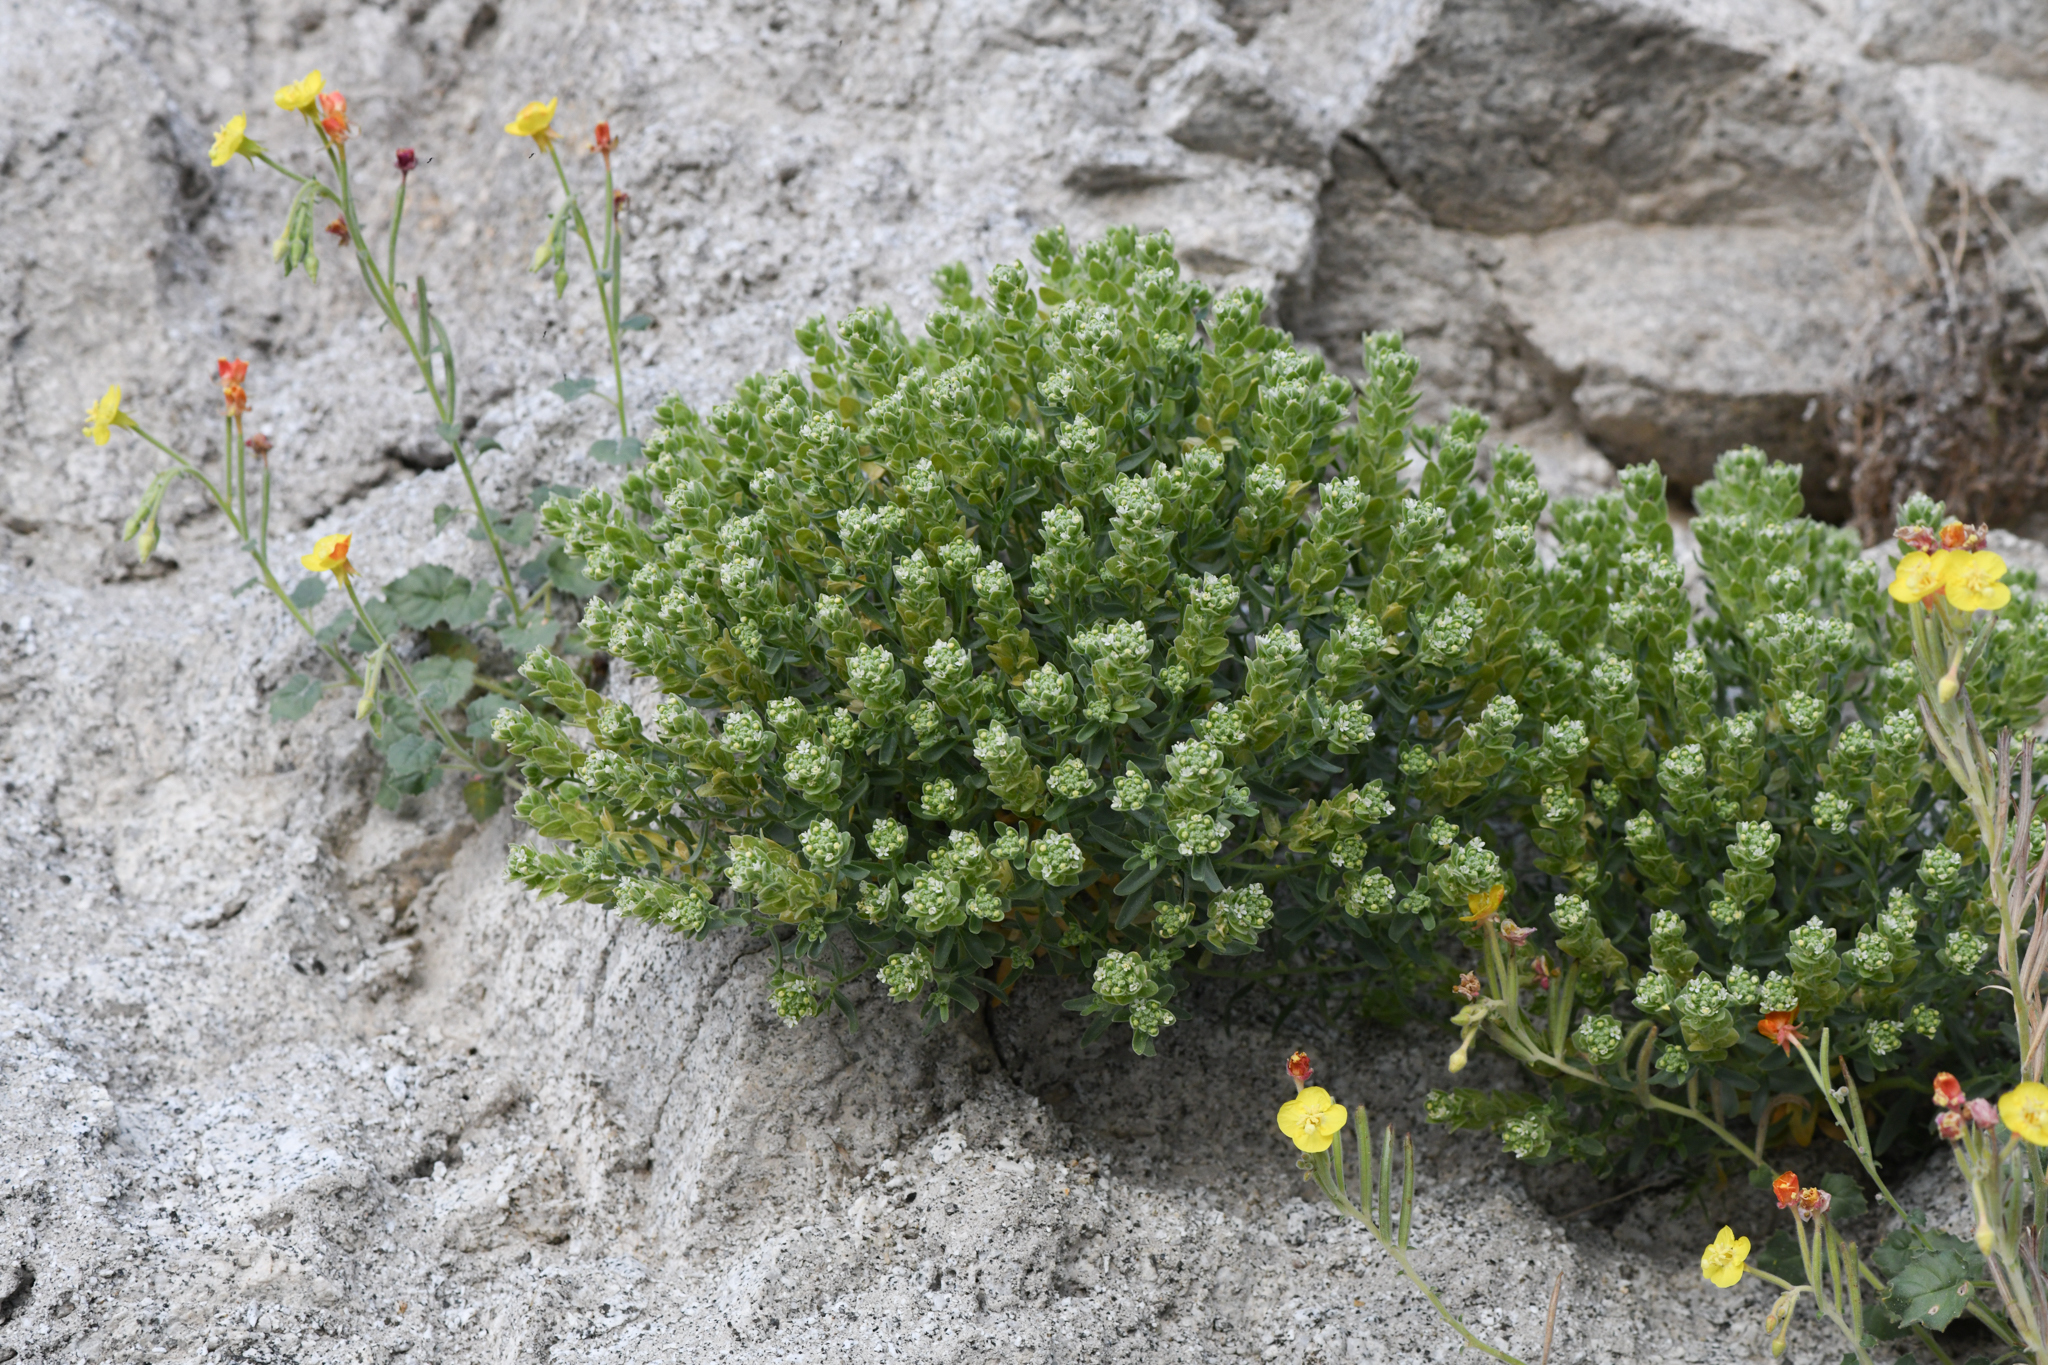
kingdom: Plantae
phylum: Tracheophyta
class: Magnoliopsida
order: Cornales
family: Loasaceae
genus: Petalonyx
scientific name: Petalonyx linearis
